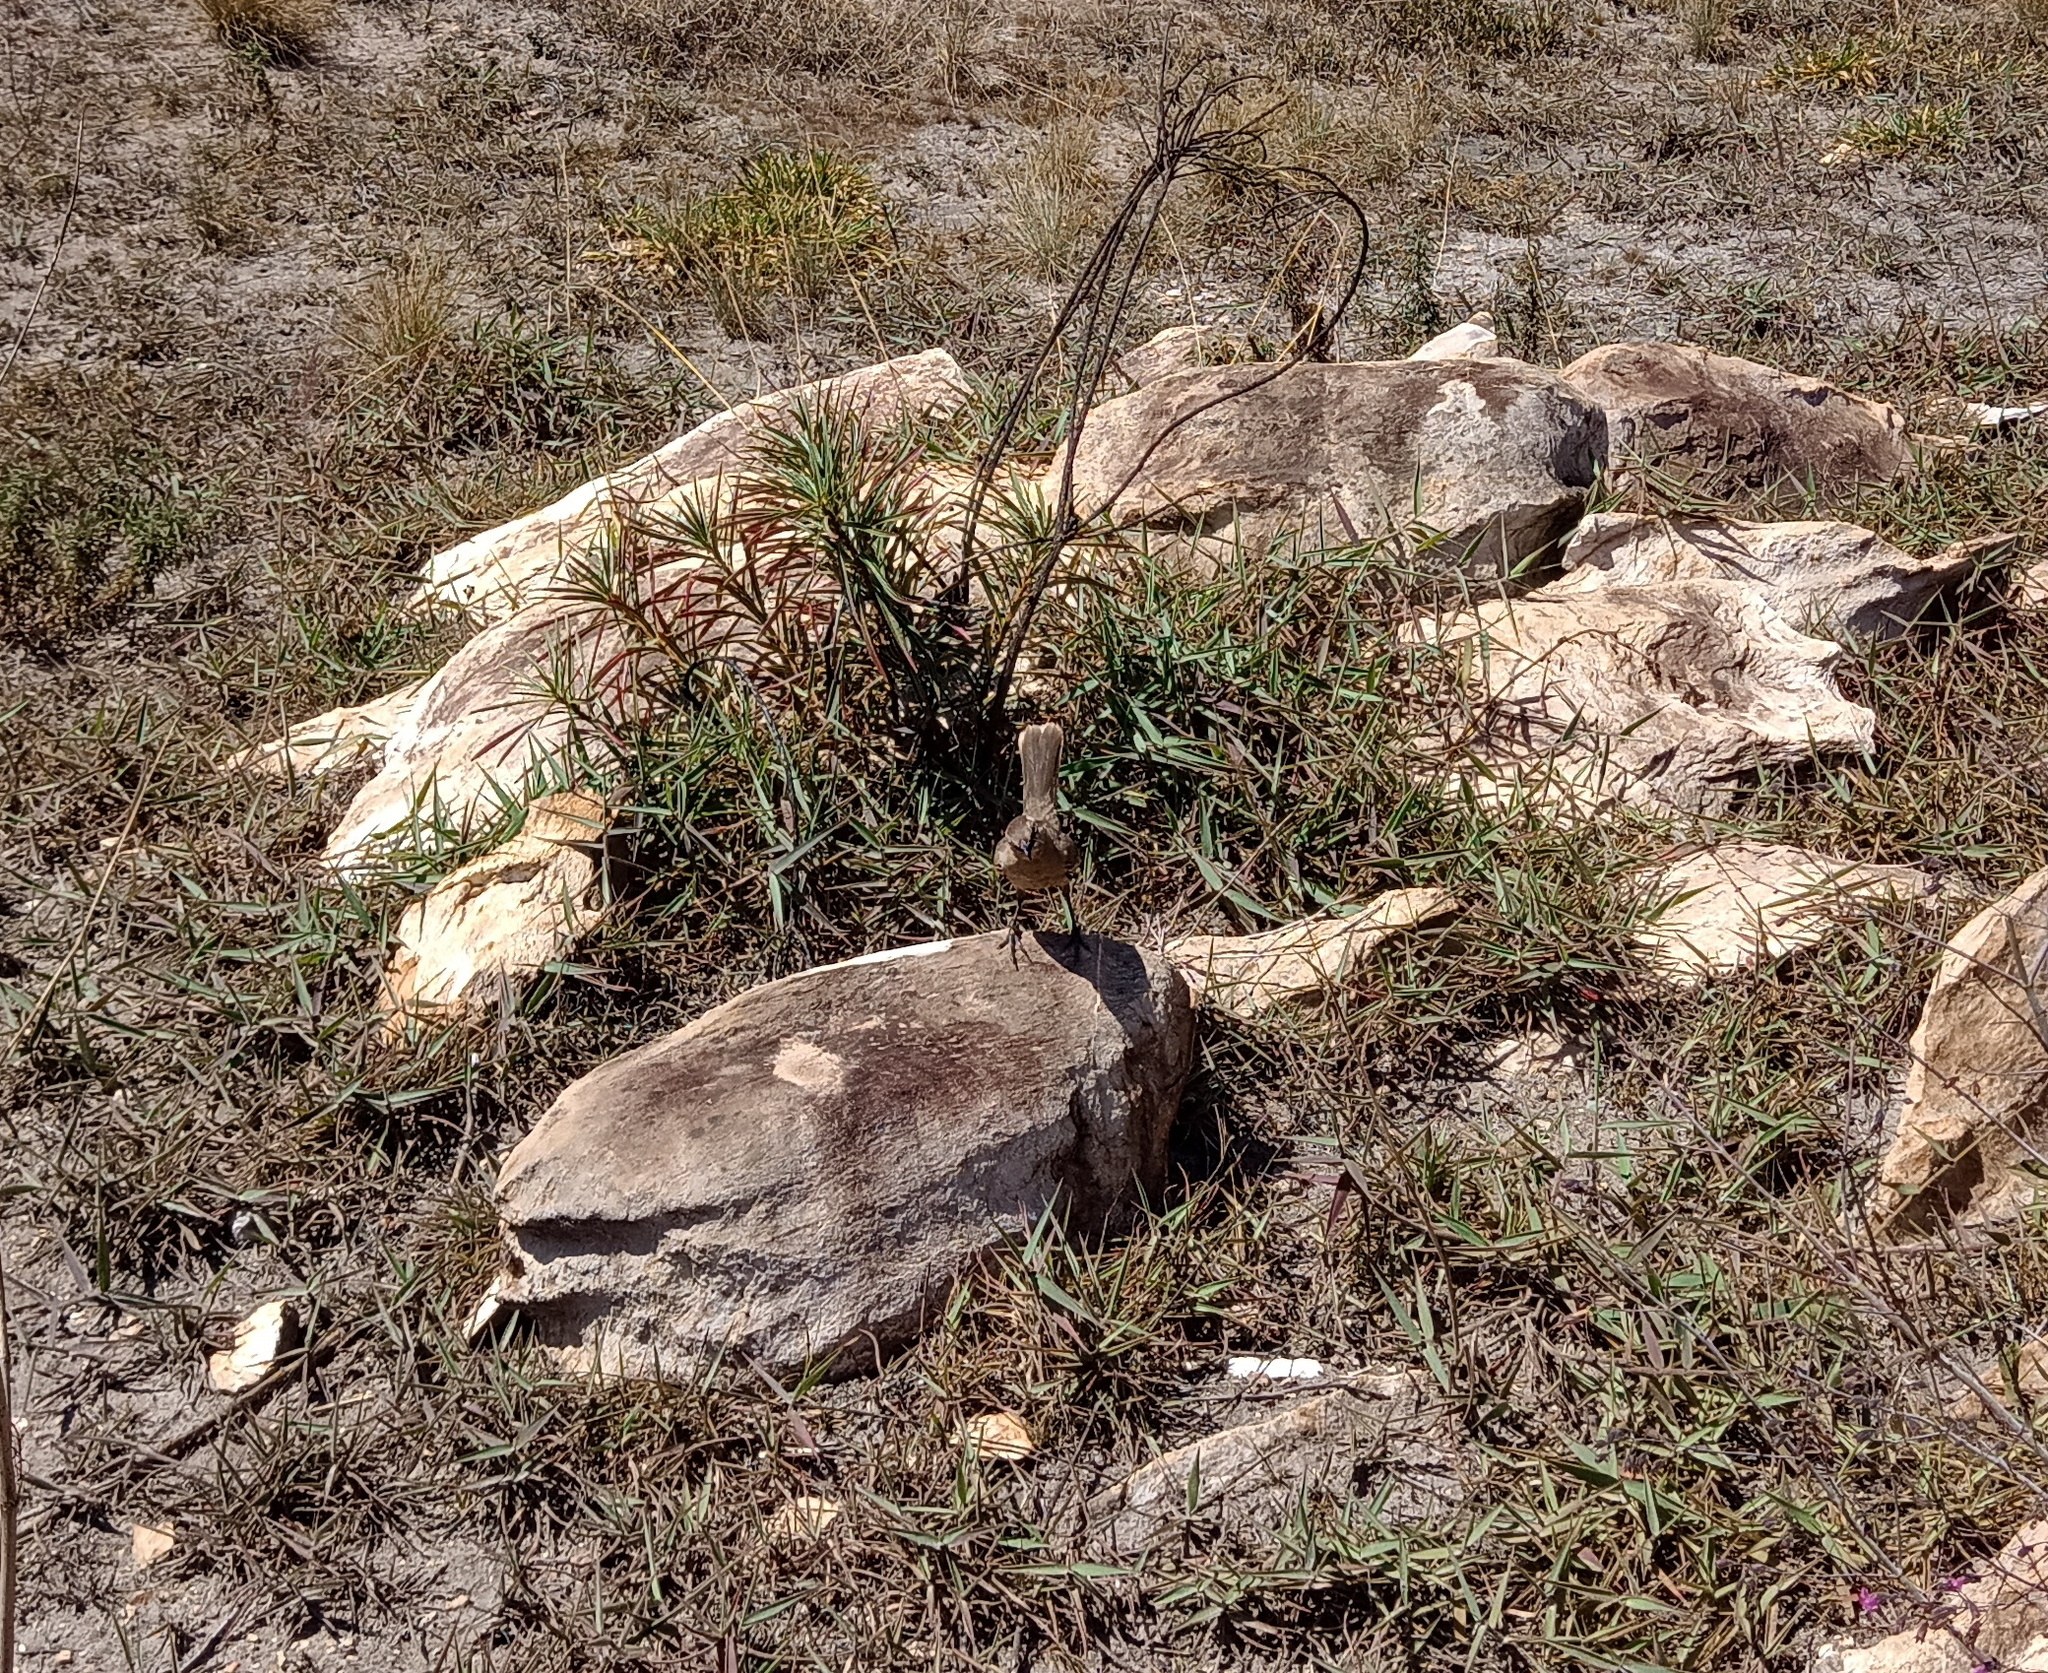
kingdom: Animalia
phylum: Chordata
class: Aves
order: Passeriformes
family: Mimidae
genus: Mimus
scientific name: Mimus saturninus
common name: Chalk-browed mockingbird
